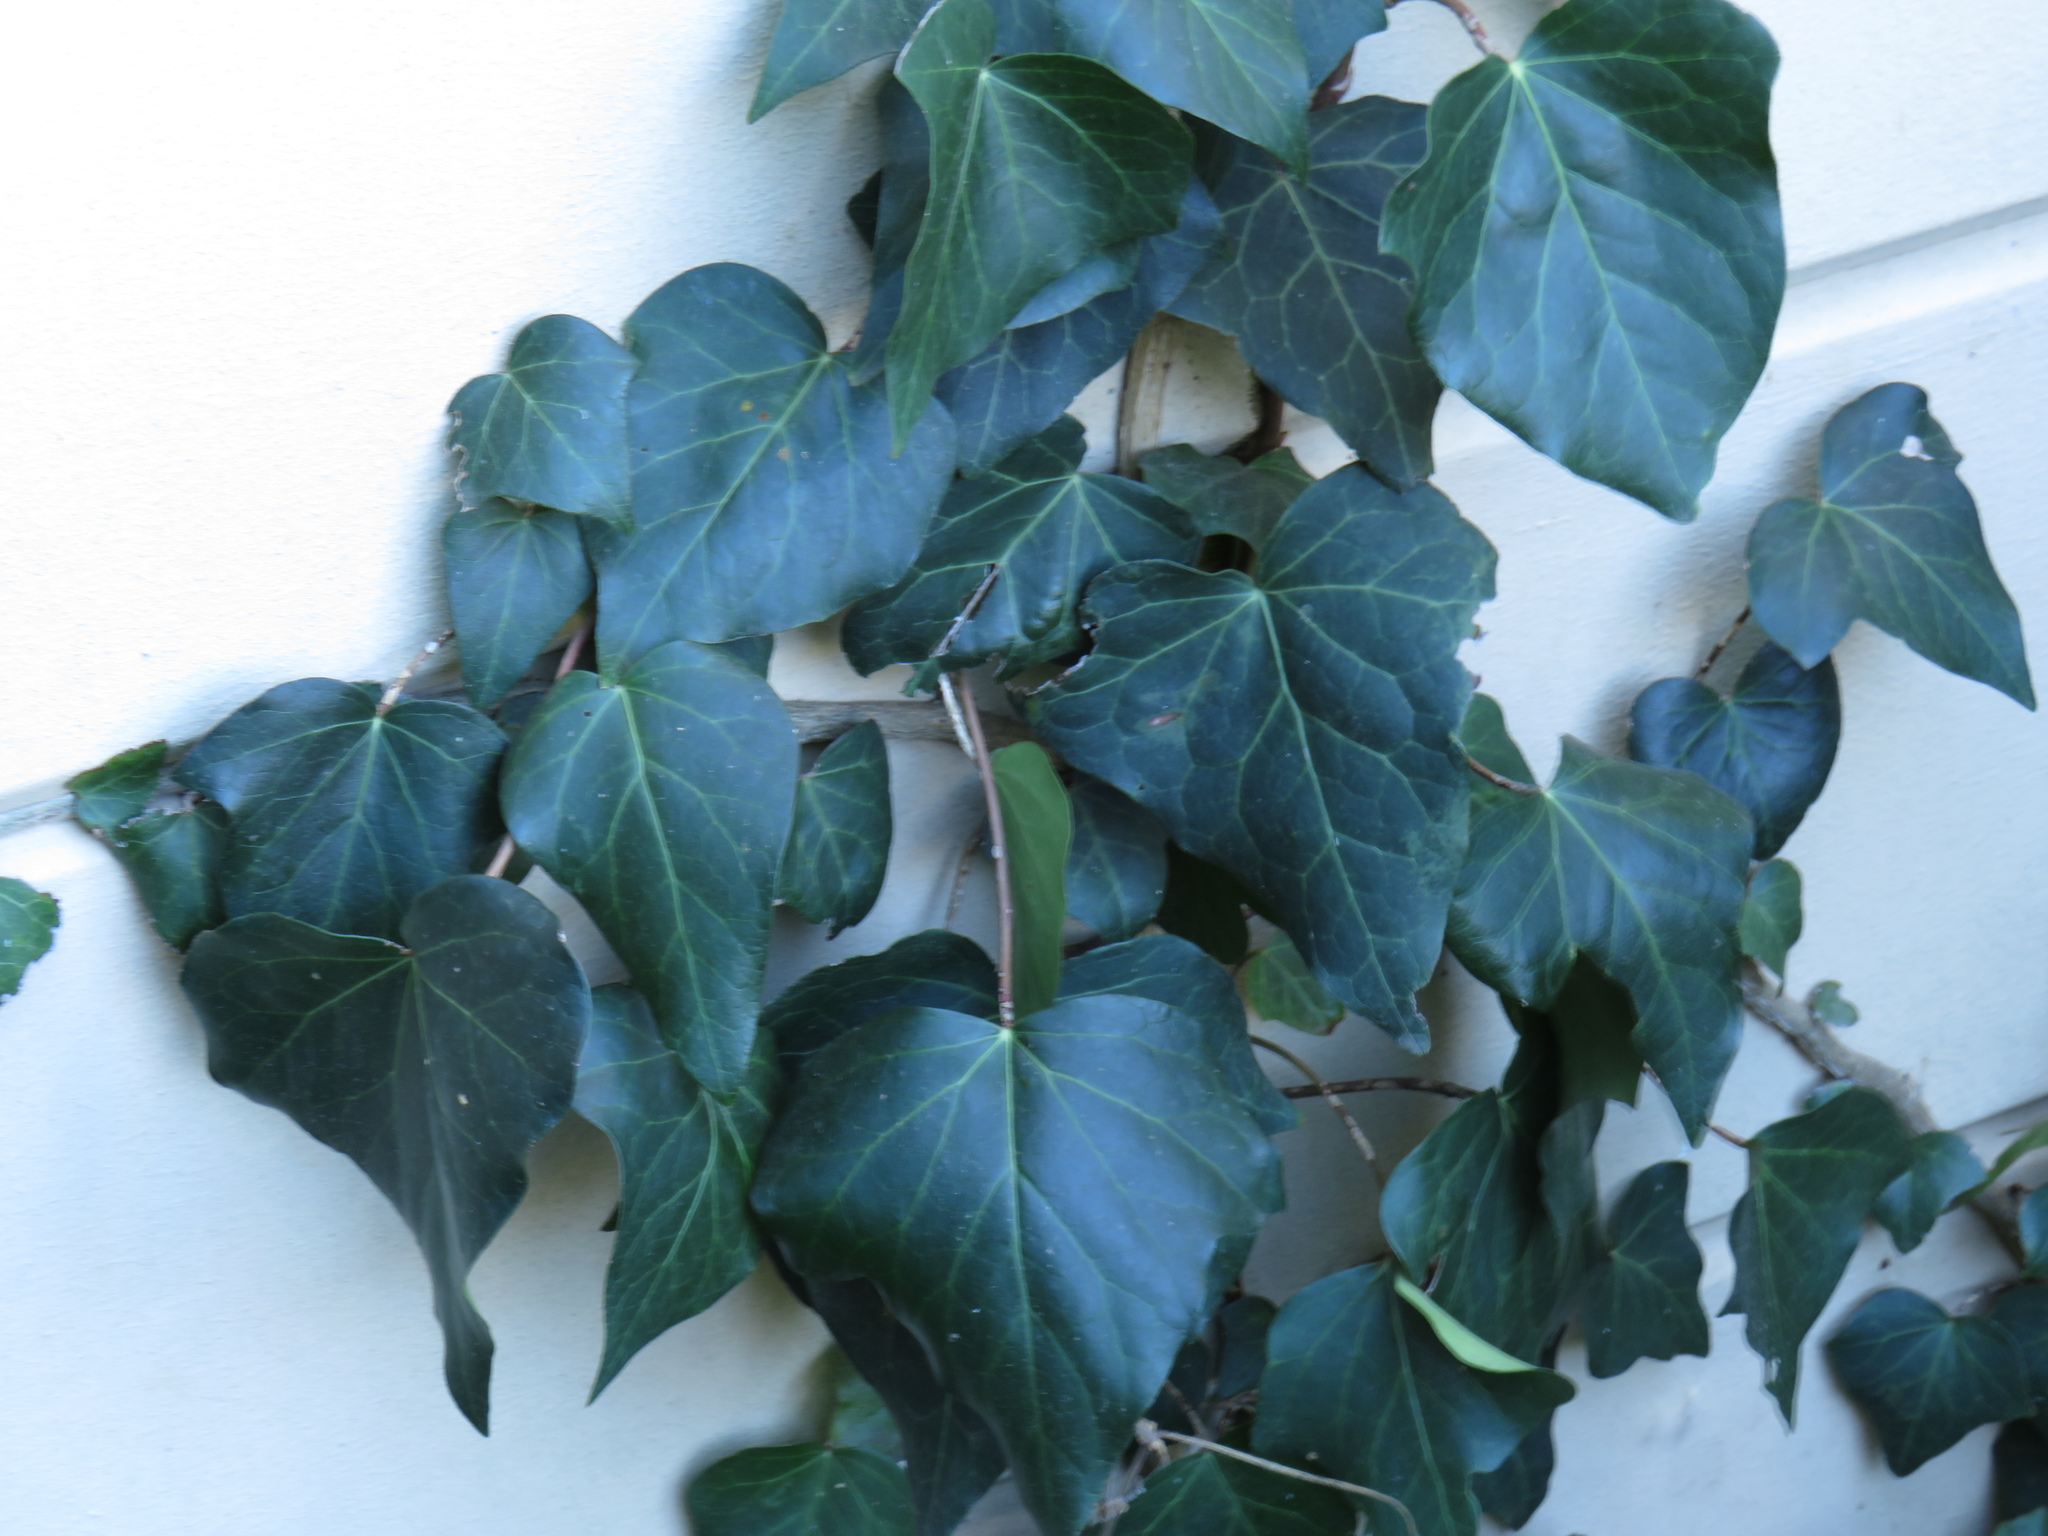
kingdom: Plantae
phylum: Tracheophyta
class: Magnoliopsida
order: Apiales
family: Araliaceae
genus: Hedera
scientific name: Hedera canariensis
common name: Madeira ivy
